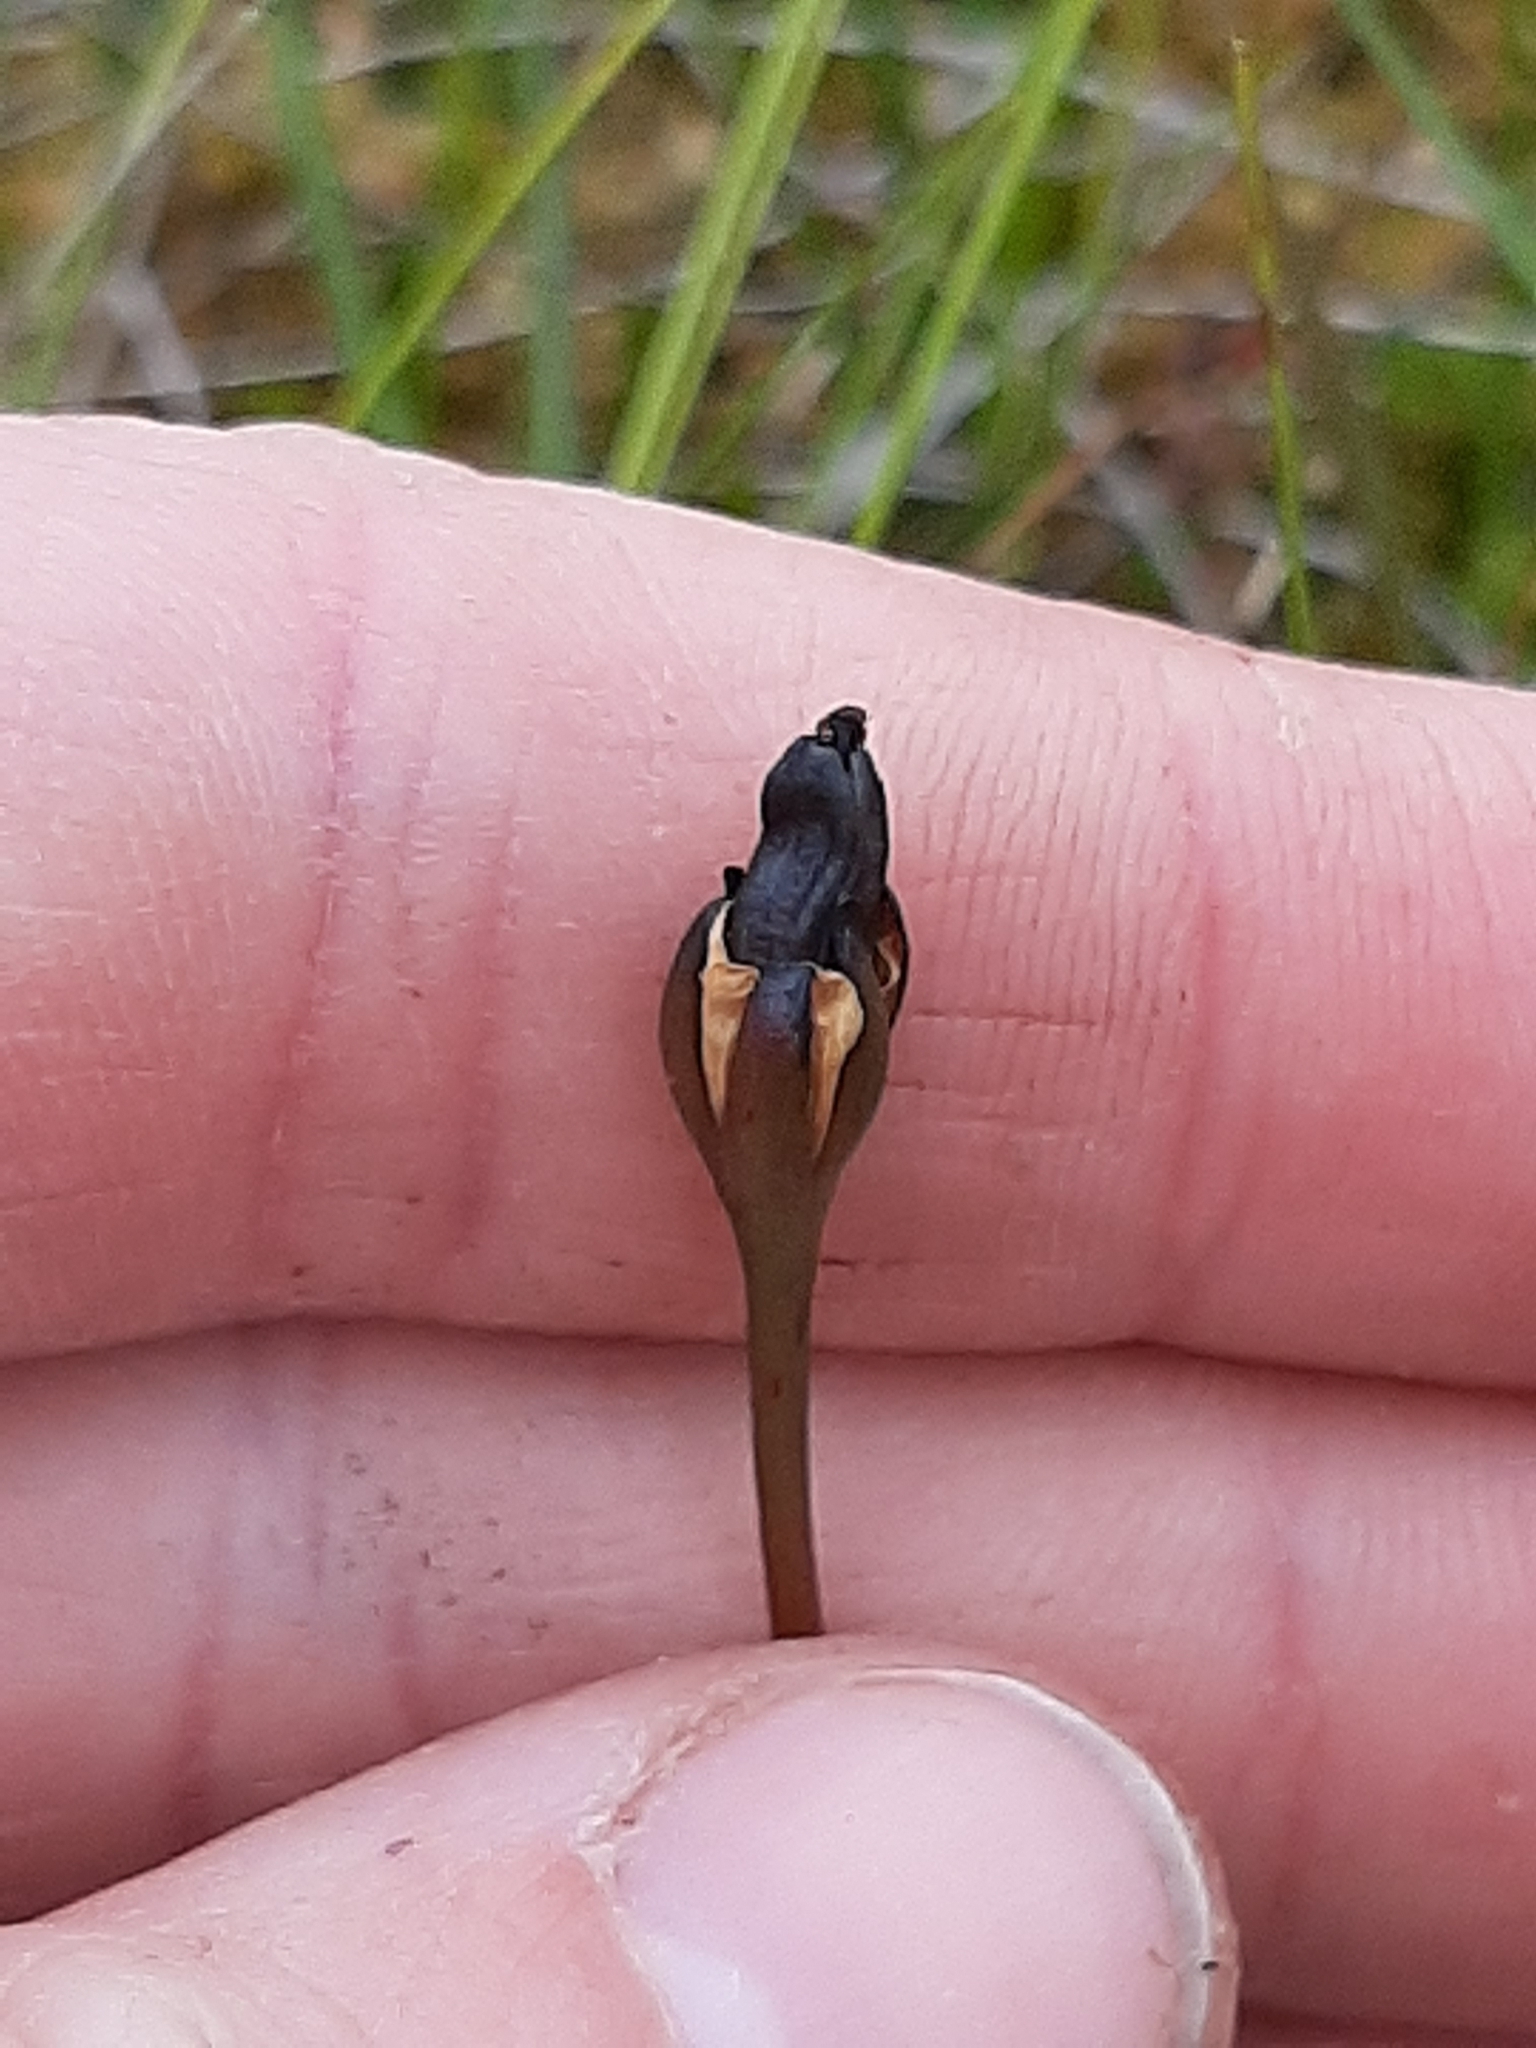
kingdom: Plantae
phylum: Tracheophyta
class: Magnoliopsida
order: Caryophyllales
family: Droseraceae
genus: Drosera
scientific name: Drosera arcturi
